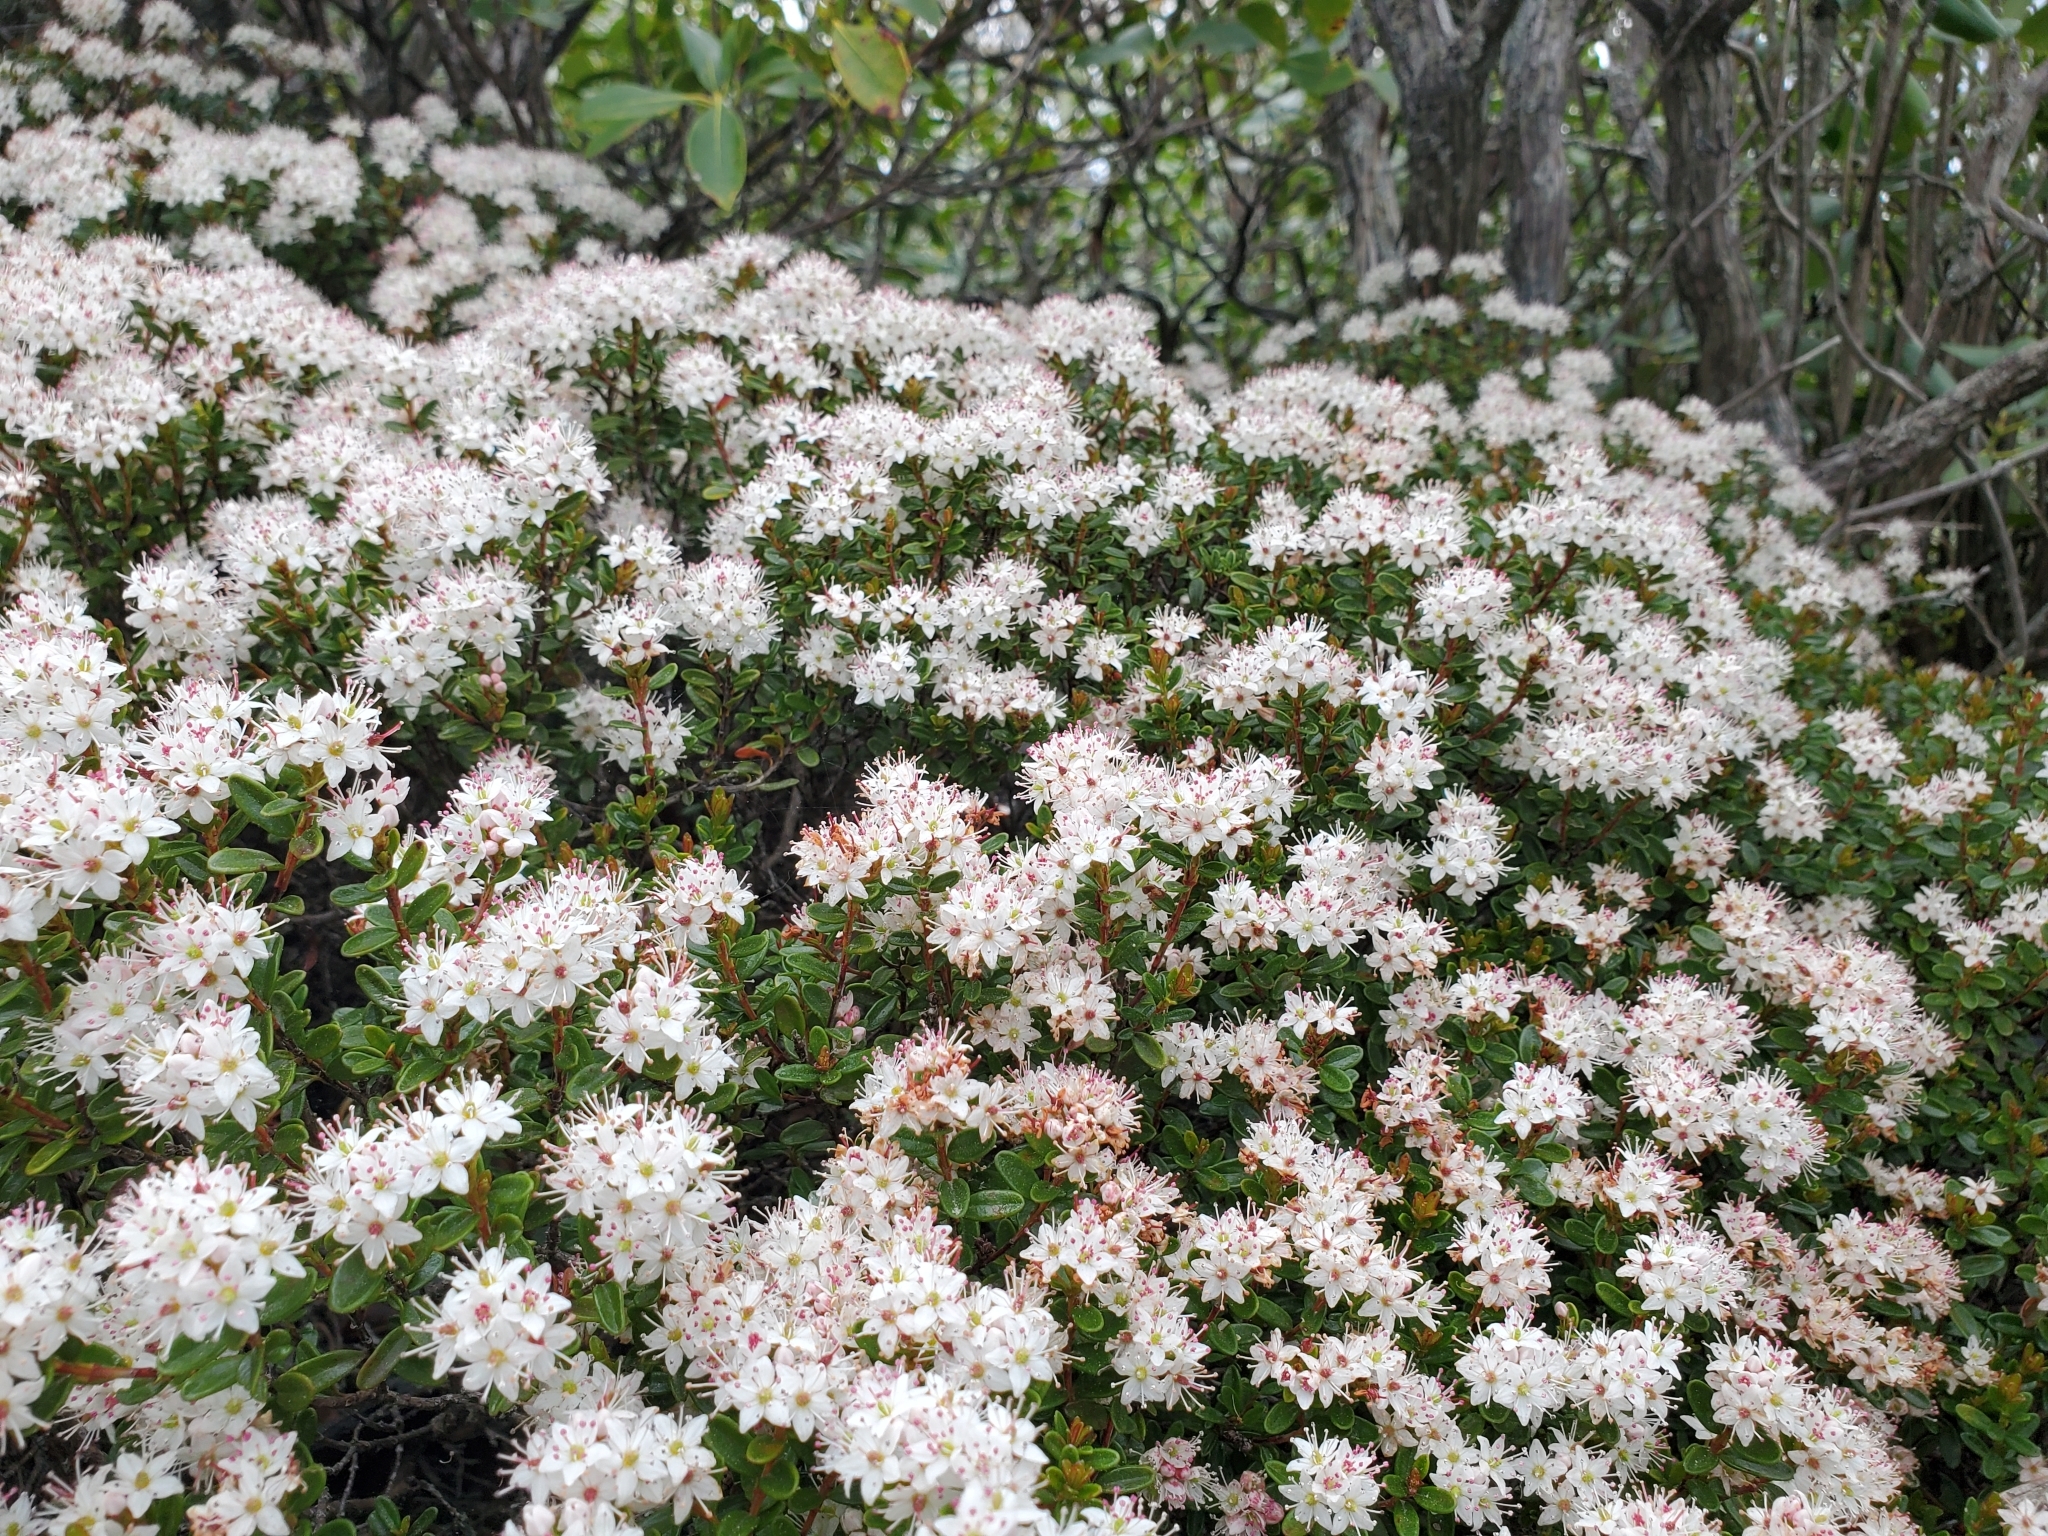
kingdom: Plantae
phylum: Tracheophyta
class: Magnoliopsida
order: Ericales
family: Ericaceae
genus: Kalmia
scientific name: Kalmia buxifolia
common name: Sandmyrtle
